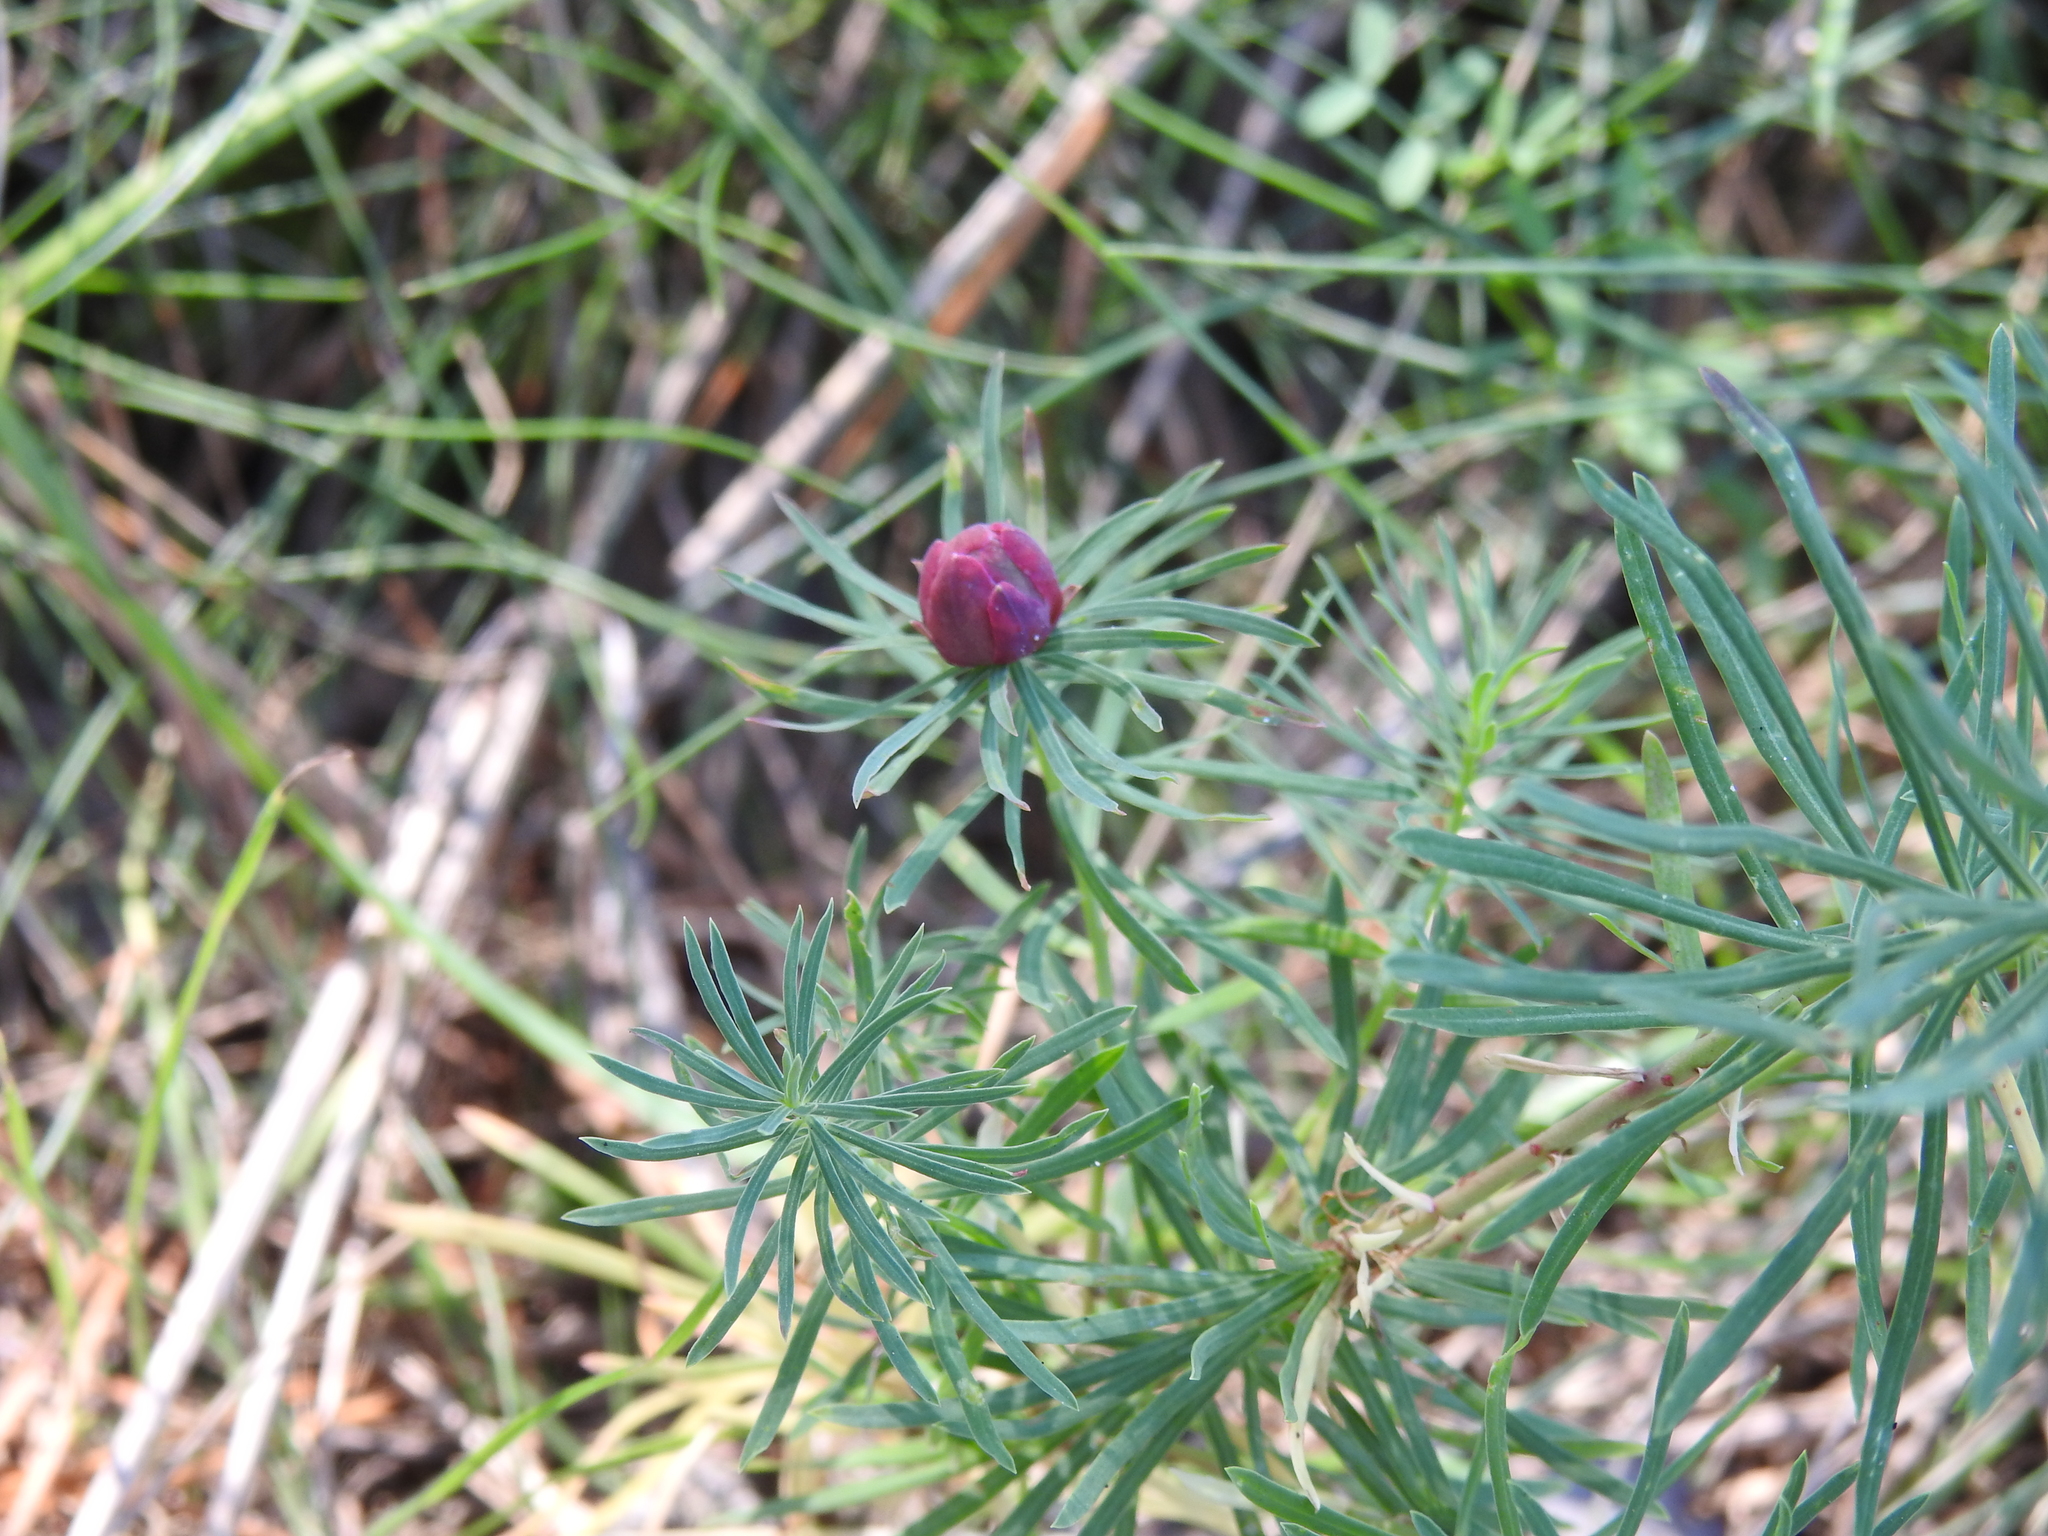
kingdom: Animalia
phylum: Arthropoda
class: Insecta
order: Diptera
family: Cecidomyiidae
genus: Spurgia
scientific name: Spurgia euphorbiae
